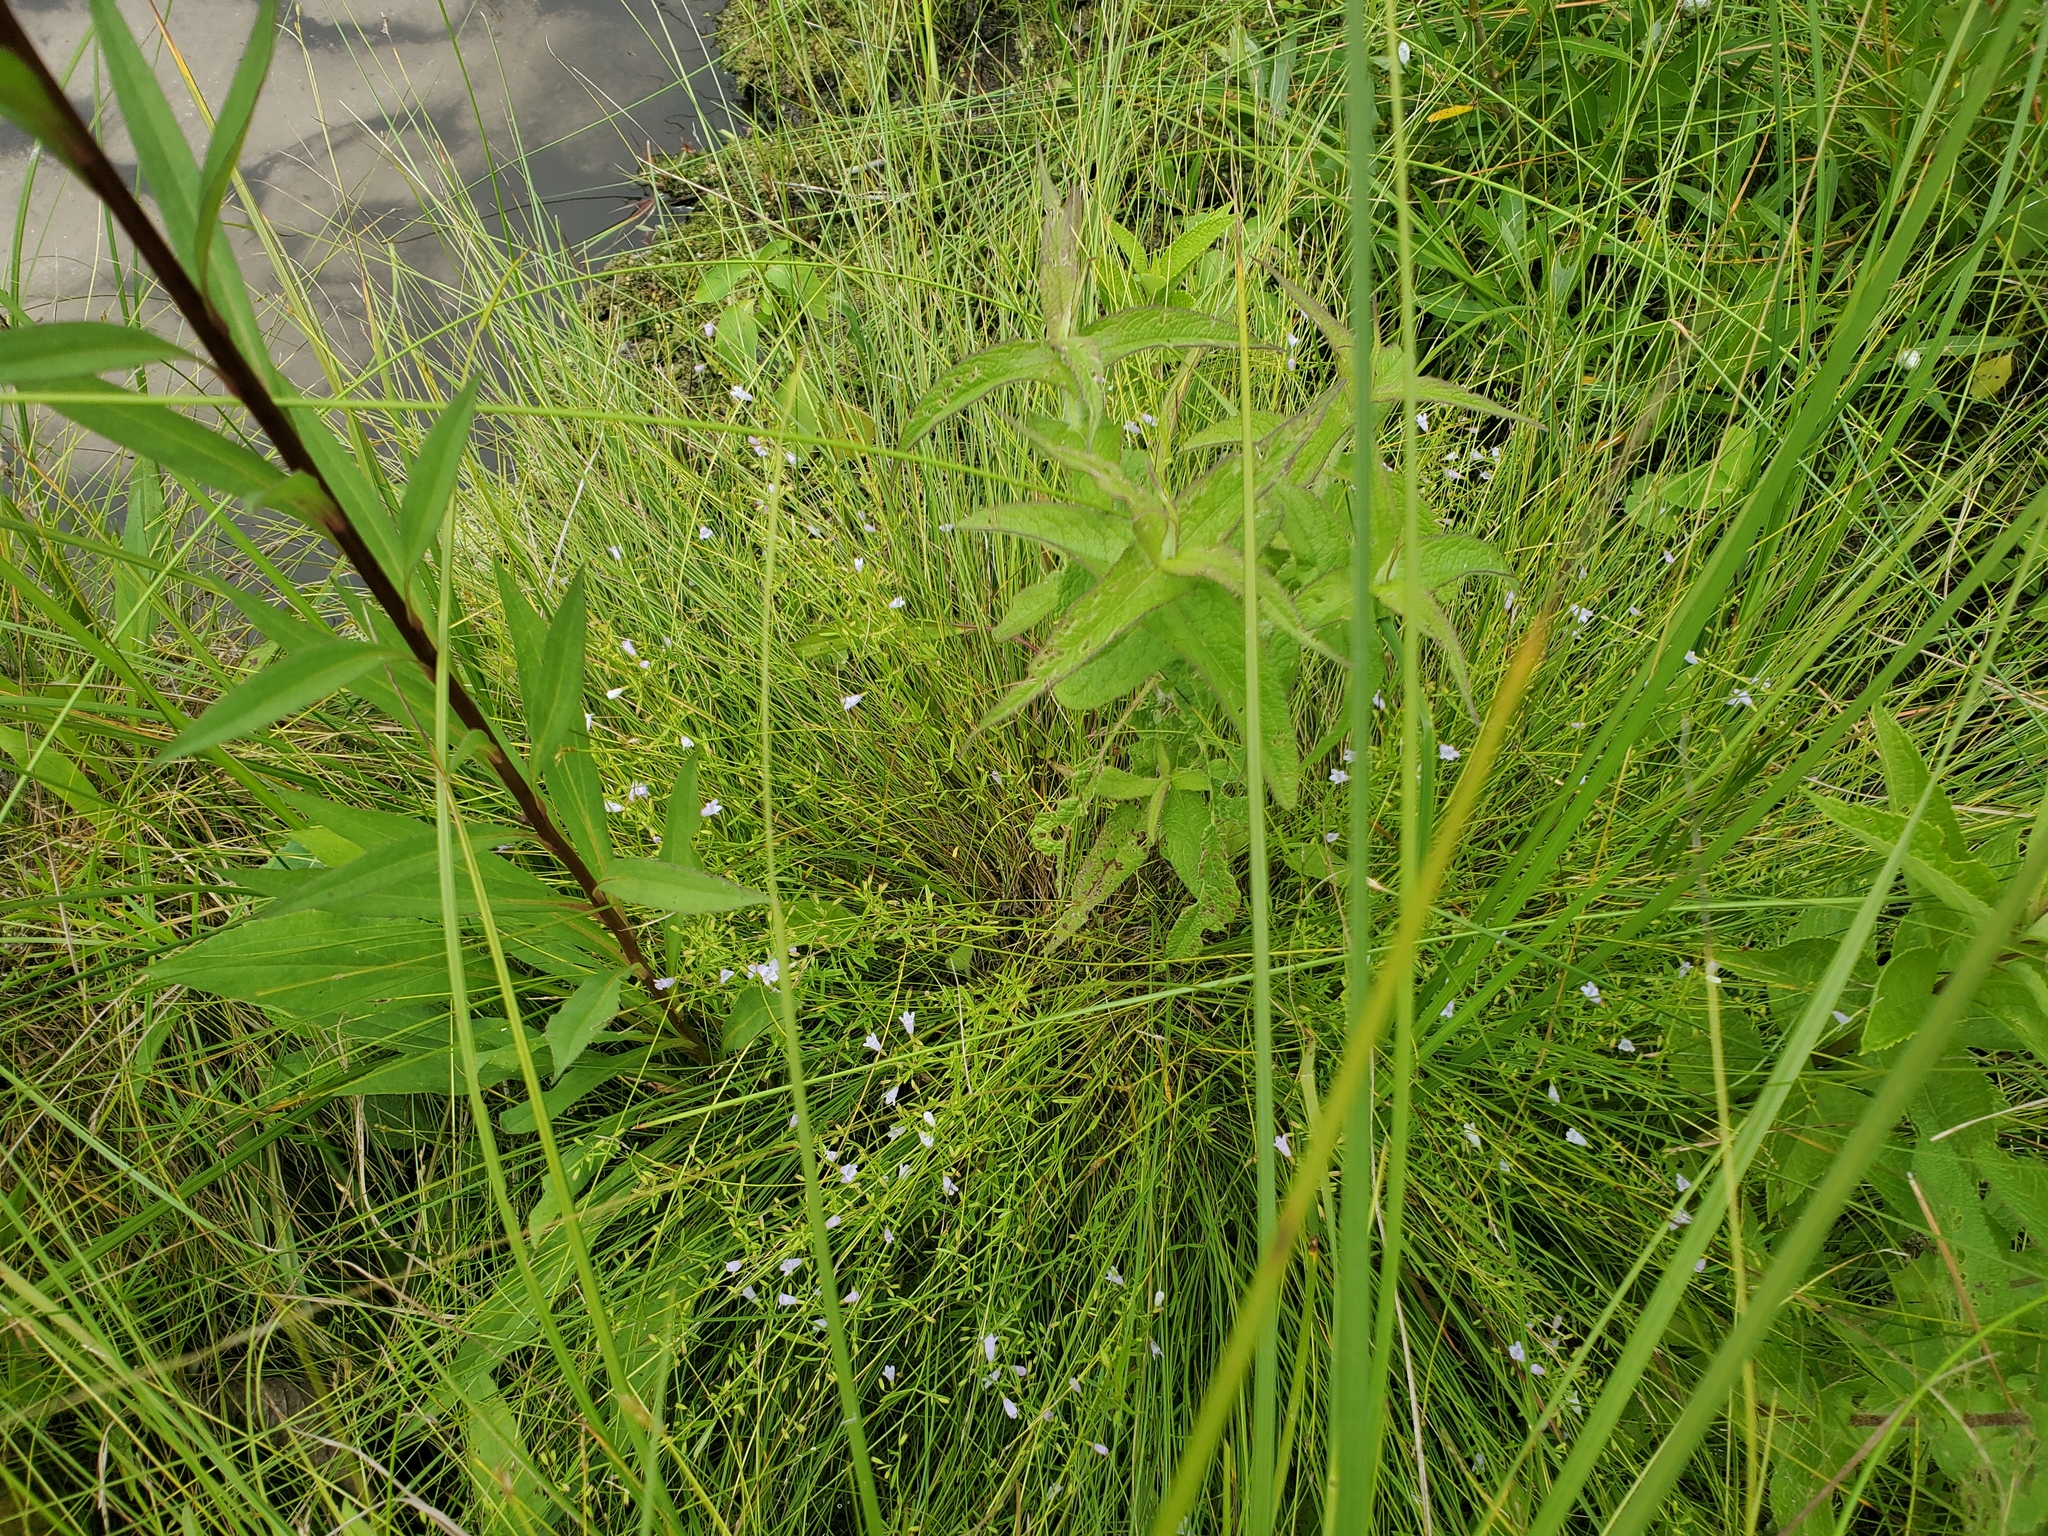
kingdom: Plantae
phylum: Tracheophyta
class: Magnoliopsida
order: Lamiales
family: Lamiaceae
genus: Clinopodium
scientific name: Clinopodium arkansanum
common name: Limestone calamint
